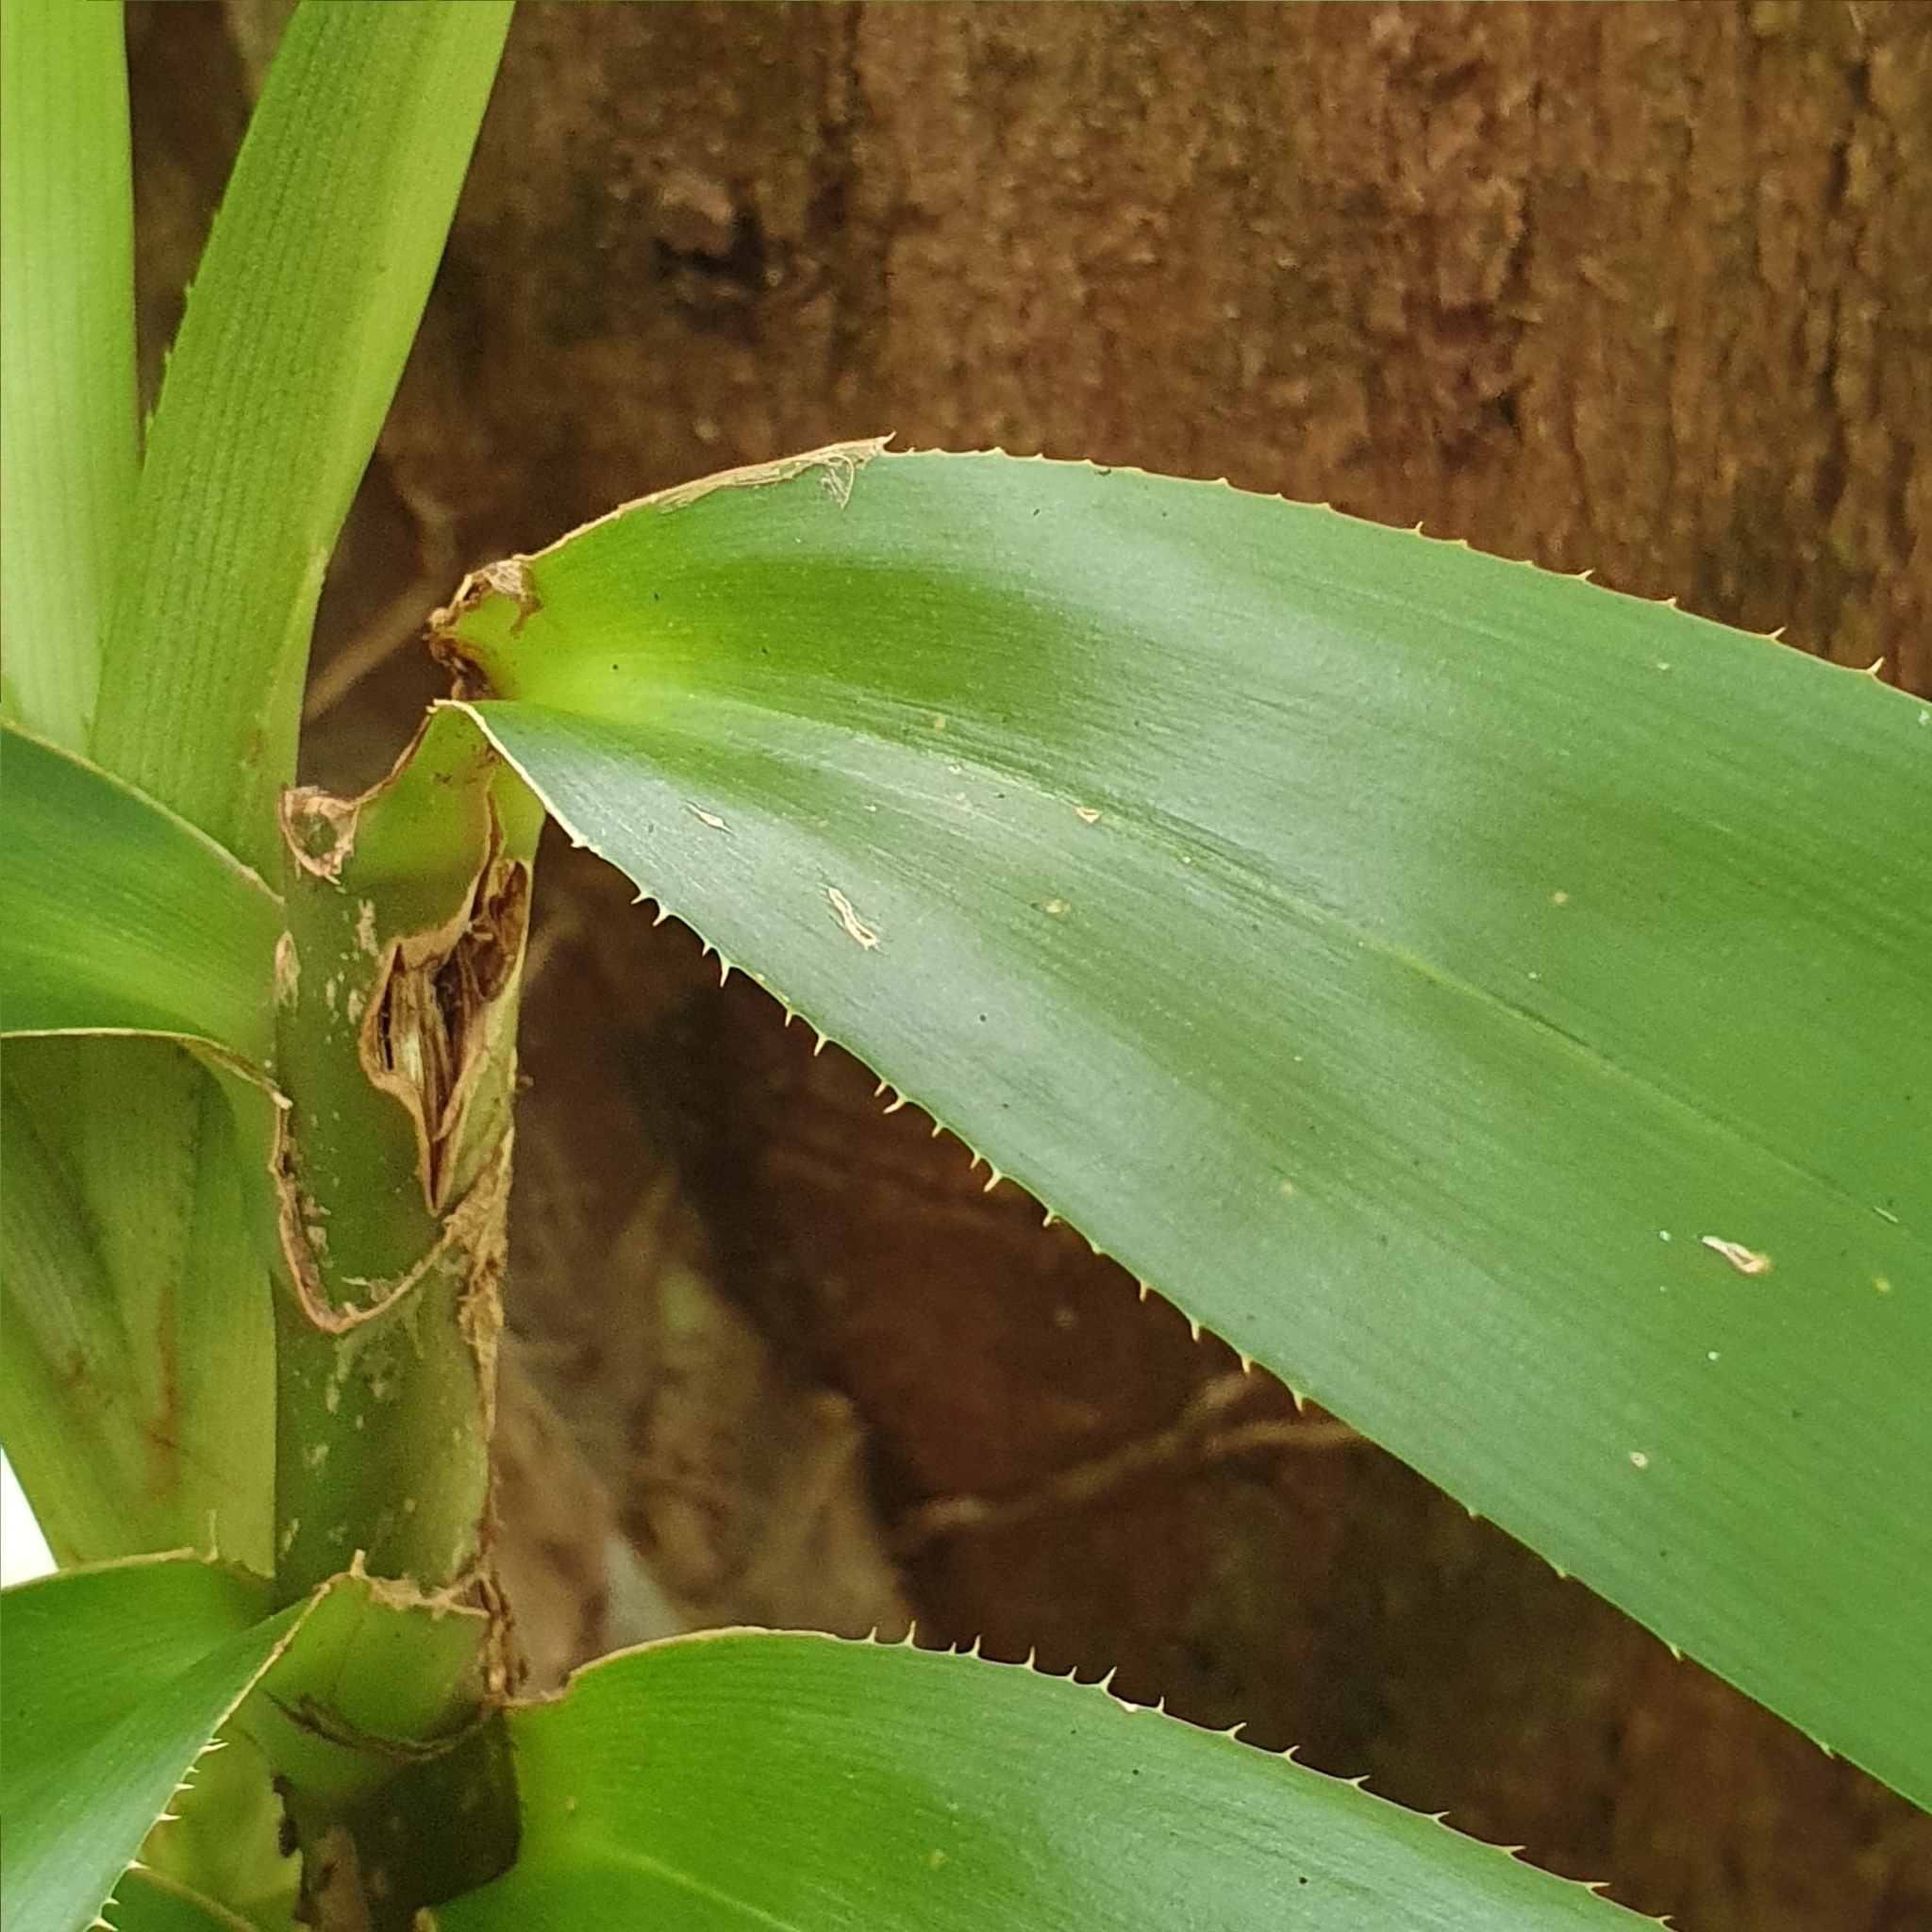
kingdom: Plantae
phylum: Tracheophyta
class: Liliopsida
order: Pandanales
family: Pandanaceae
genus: Freycinetia
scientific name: Freycinetia scandens
